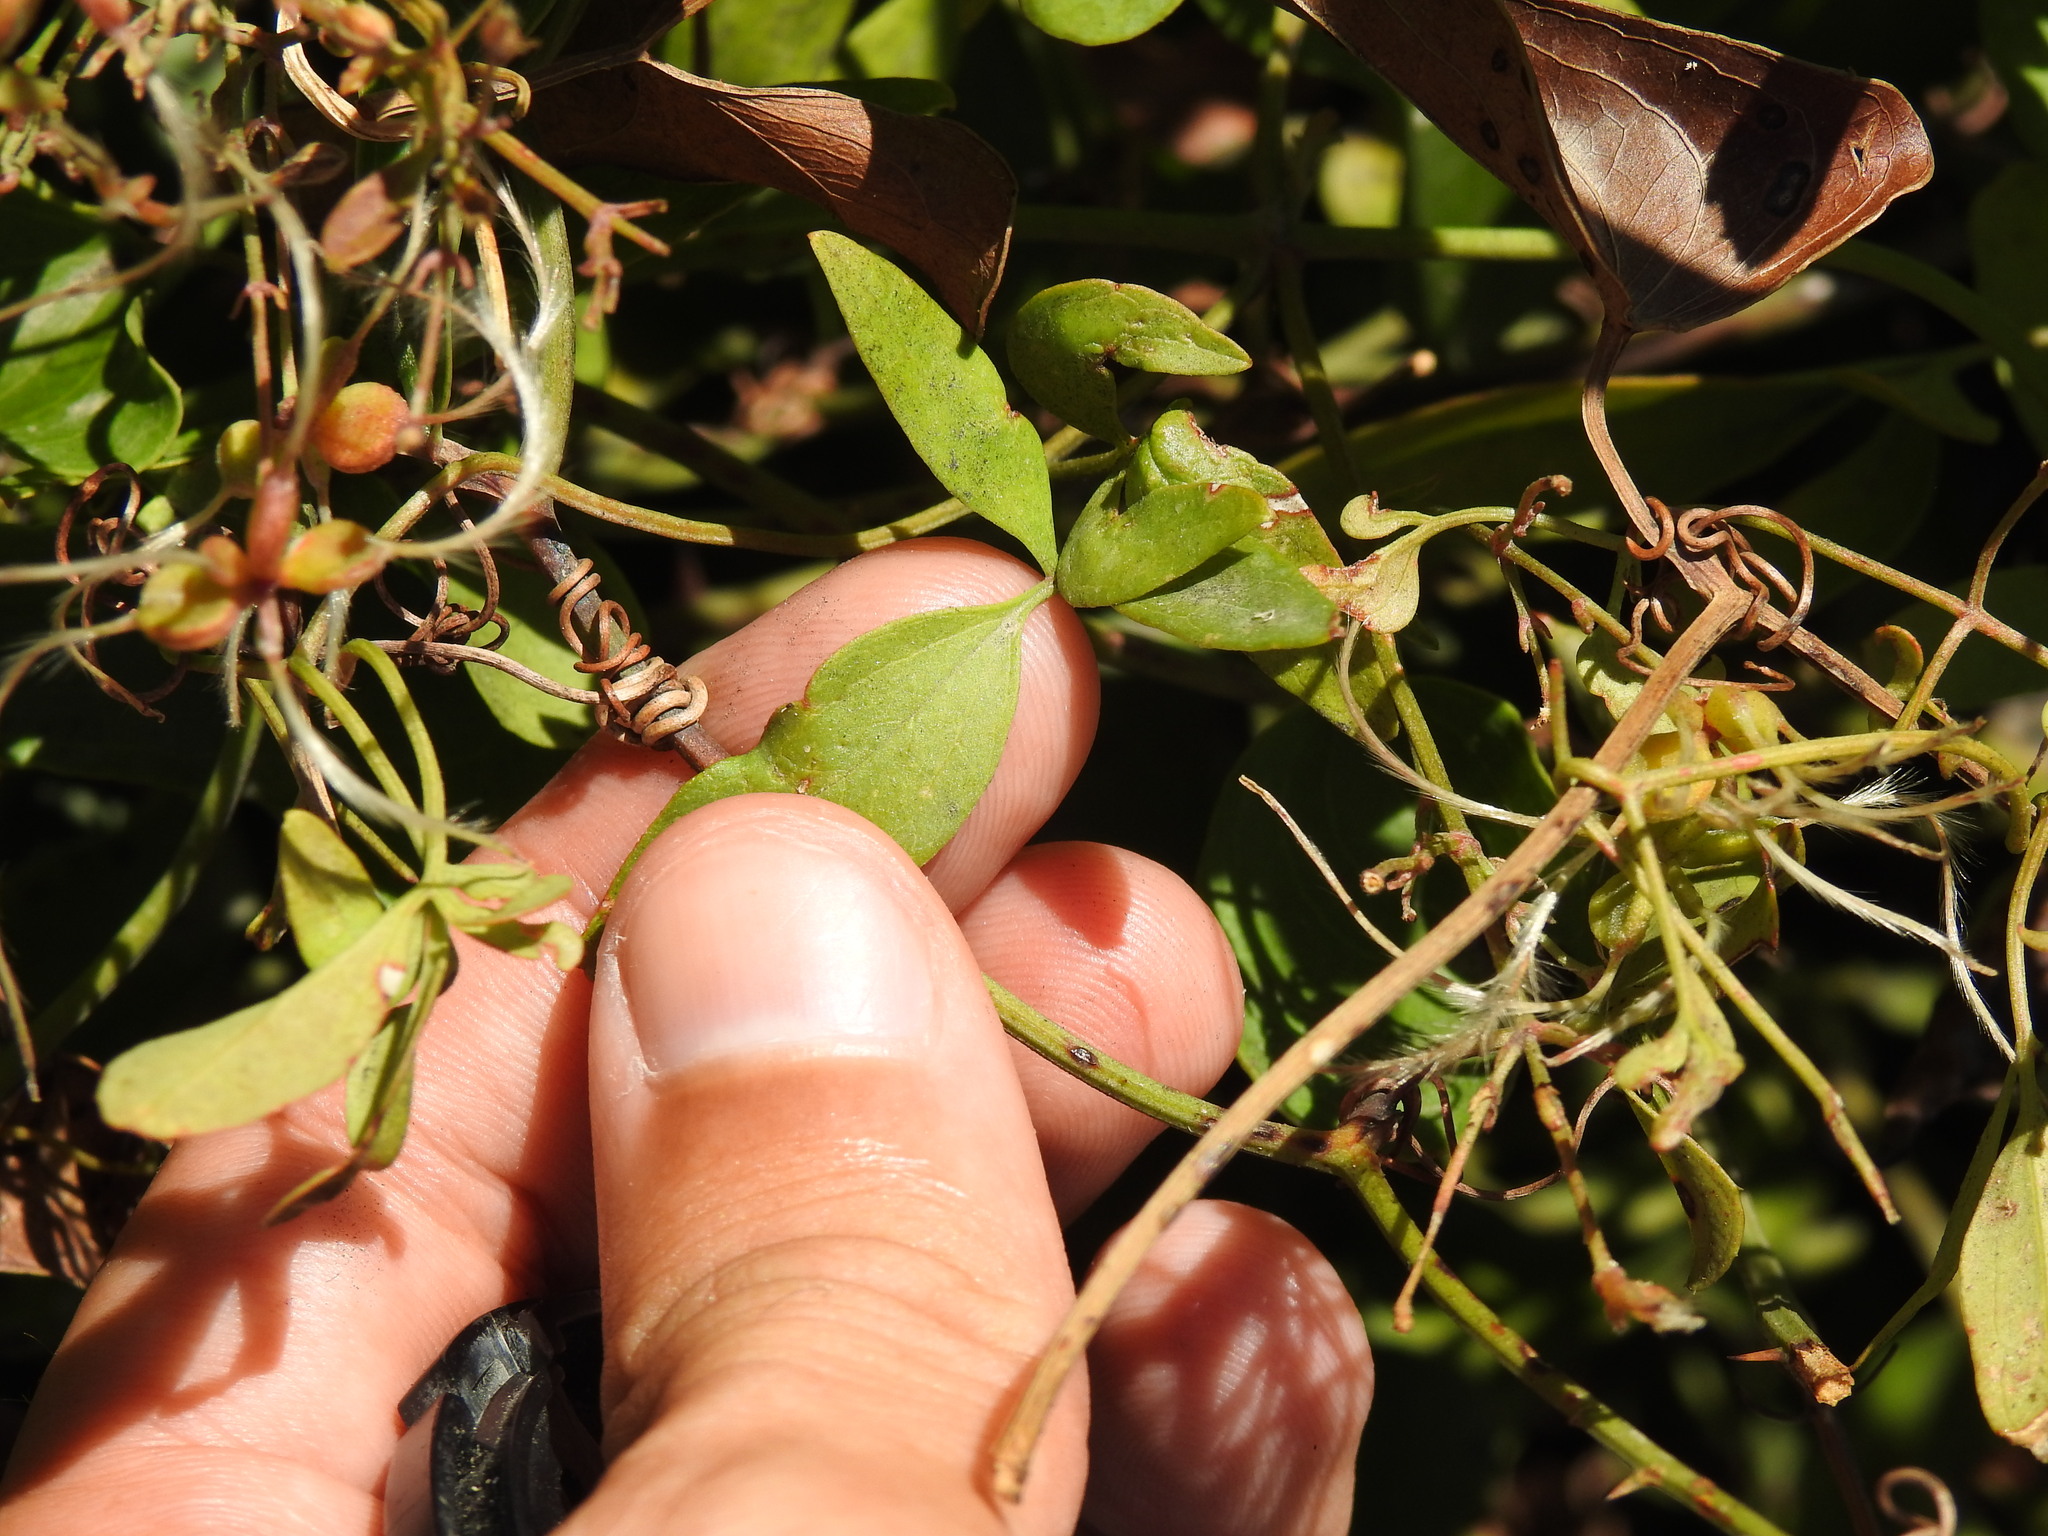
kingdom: Plantae
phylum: Tracheophyta
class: Magnoliopsida
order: Ranunculales
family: Ranunculaceae
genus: Clematis
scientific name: Clematis flammula
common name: Virgin's-bower
